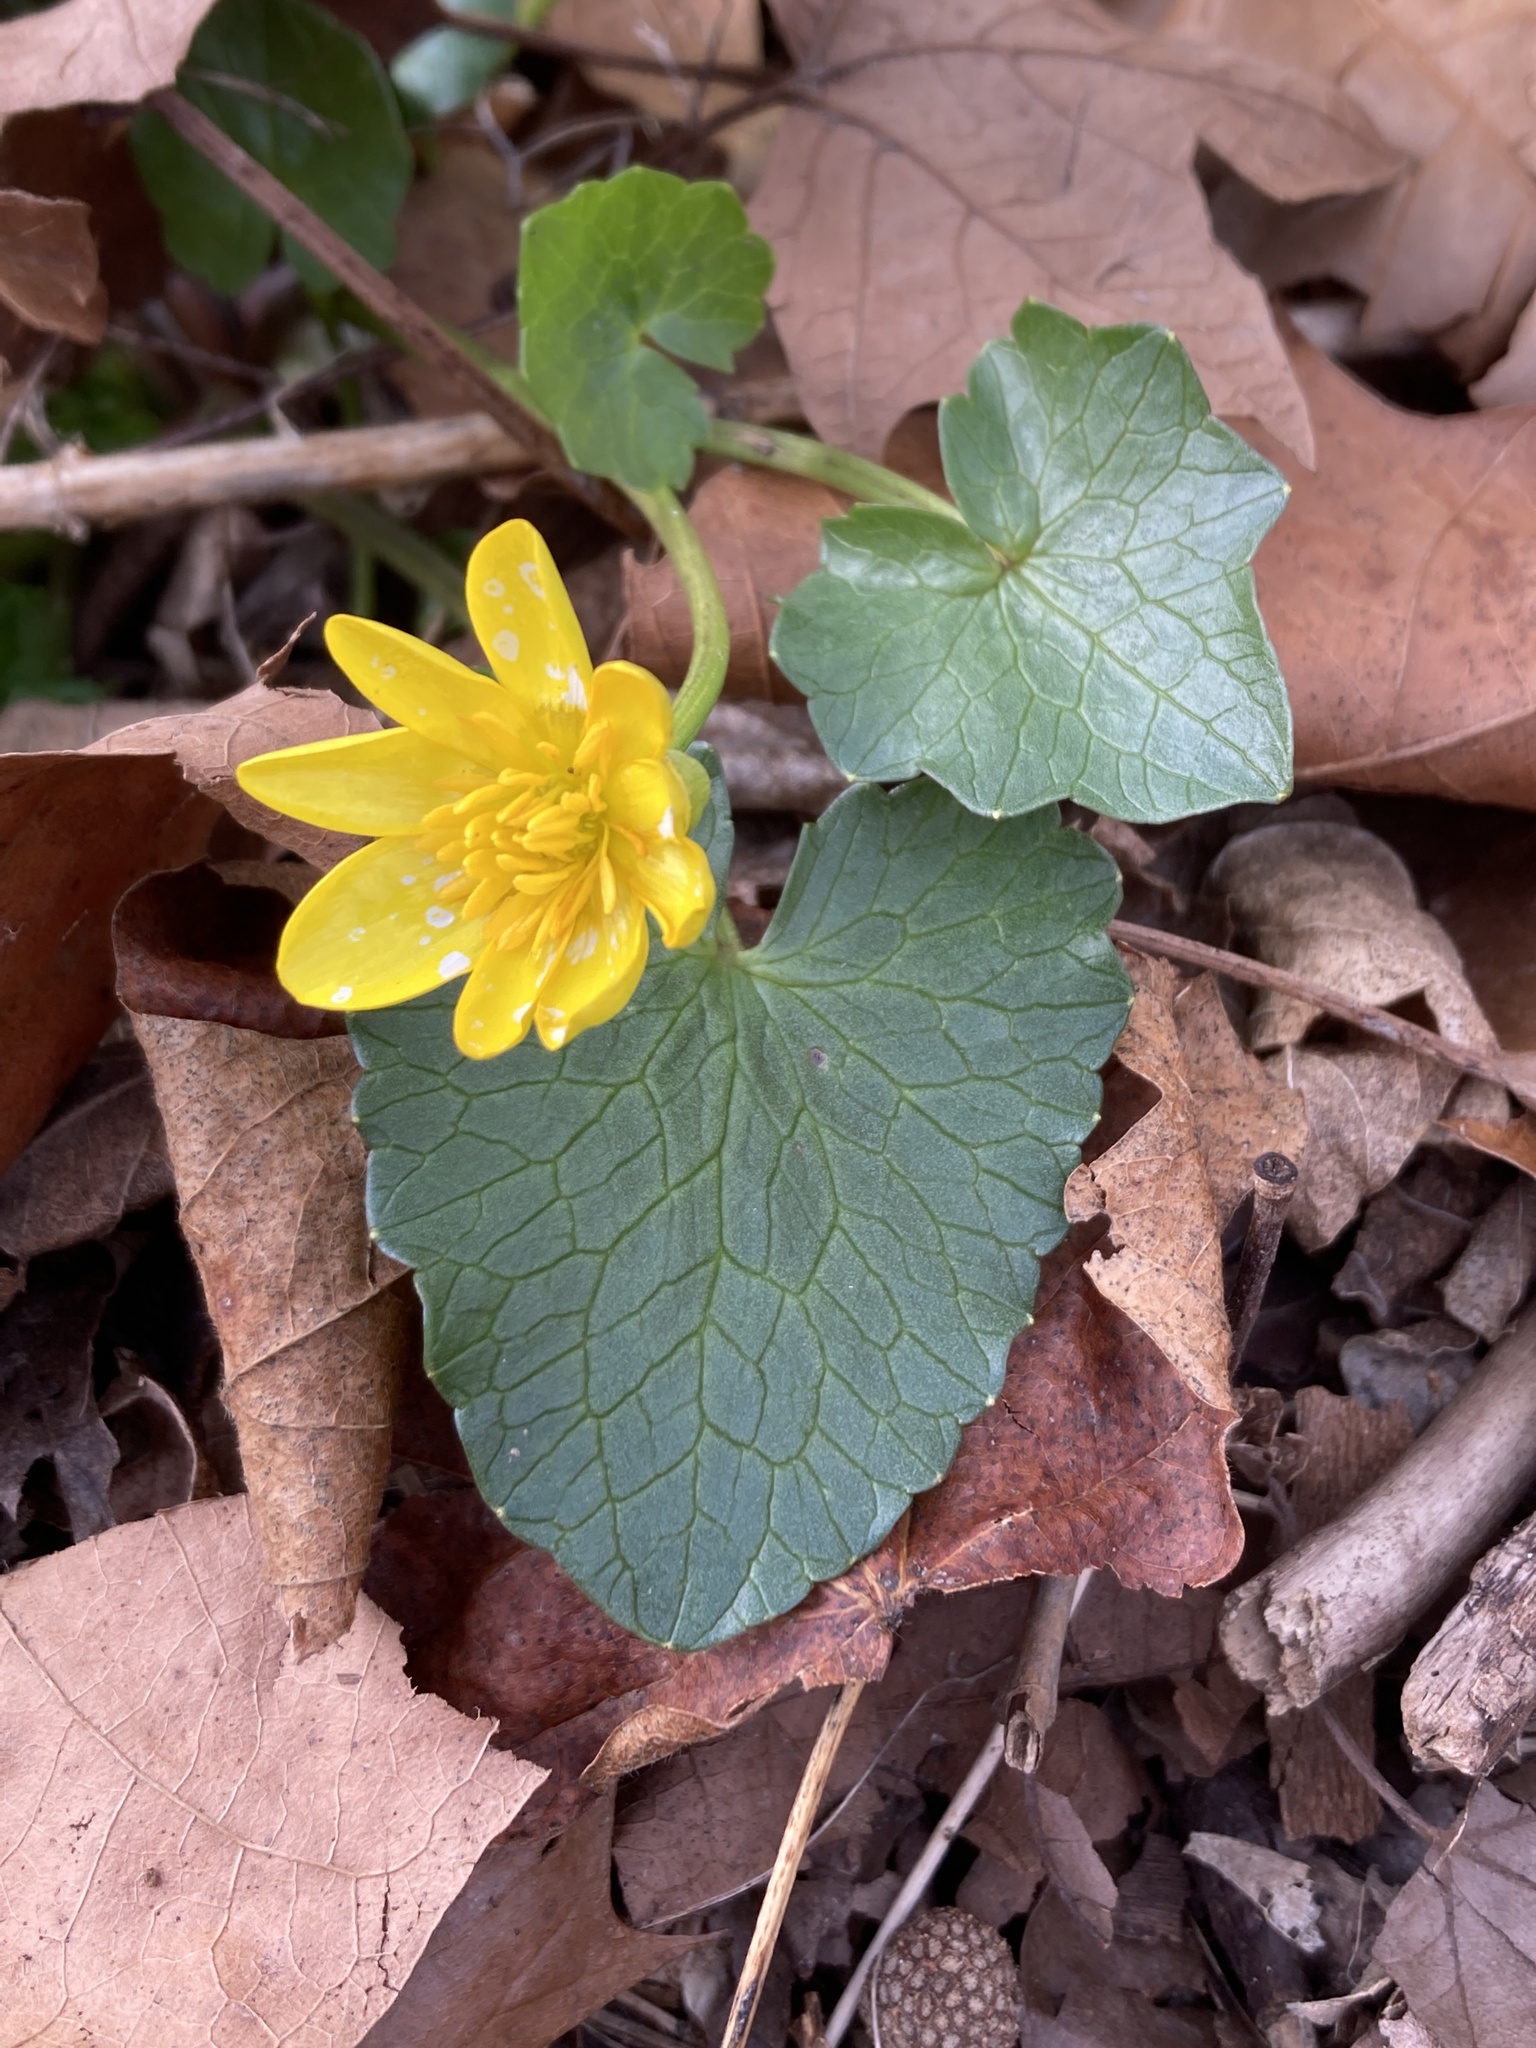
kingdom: Plantae
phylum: Tracheophyta
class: Magnoliopsida
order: Ranunculales
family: Ranunculaceae
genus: Ficaria
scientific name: Ficaria verna
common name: Lesser celandine
